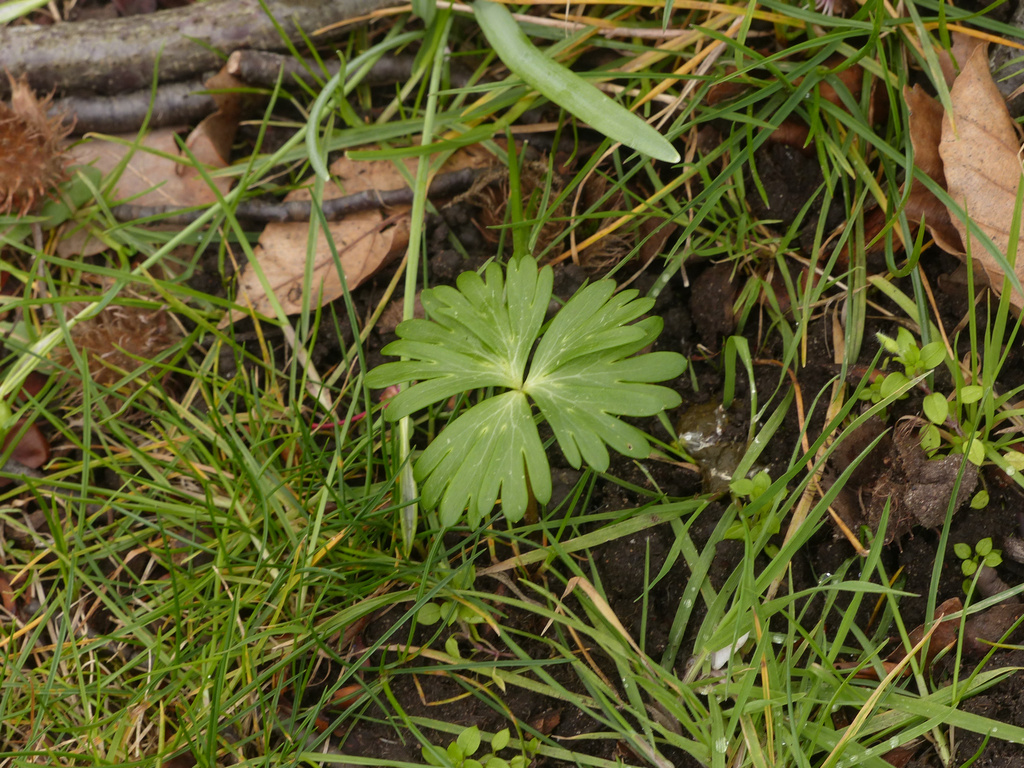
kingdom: Plantae
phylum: Tracheophyta
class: Magnoliopsida
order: Ranunculales
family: Ranunculaceae
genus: Eranthis
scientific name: Eranthis hyemalis
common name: Winter aconite
